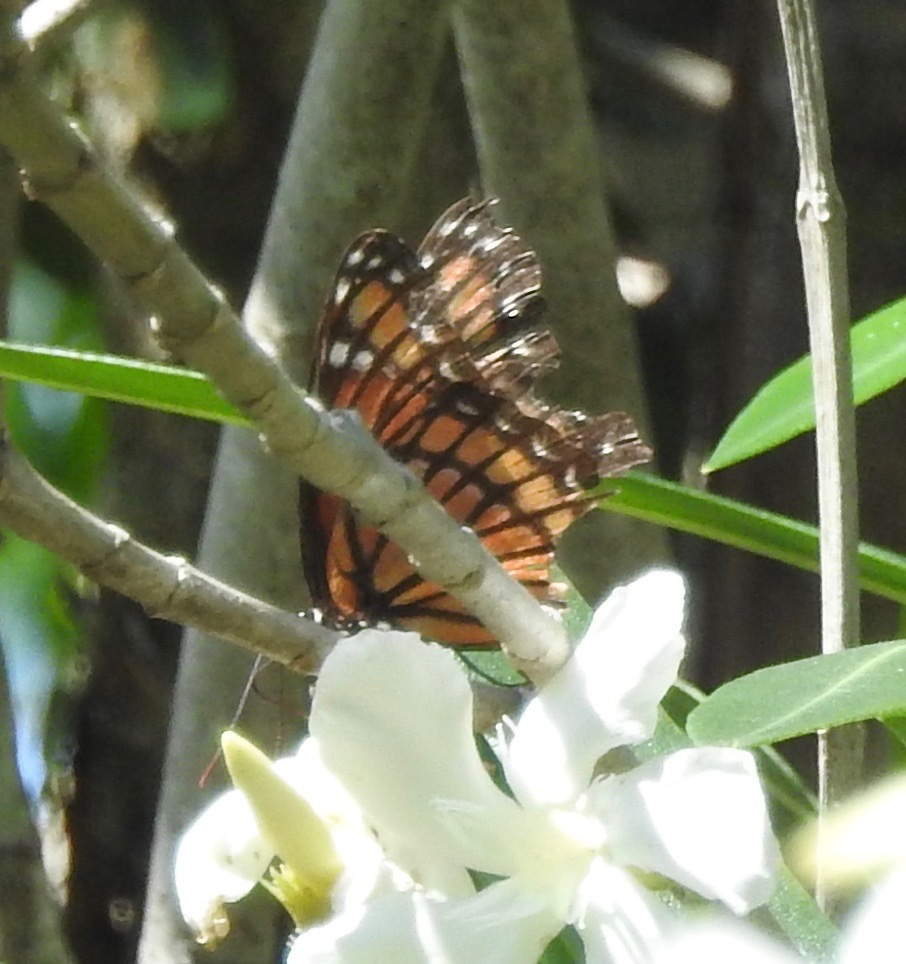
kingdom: Animalia
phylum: Arthropoda
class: Insecta
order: Lepidoptera
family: Nymphalidae
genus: Limenitis
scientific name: Limenitis archippus
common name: Viceroy
